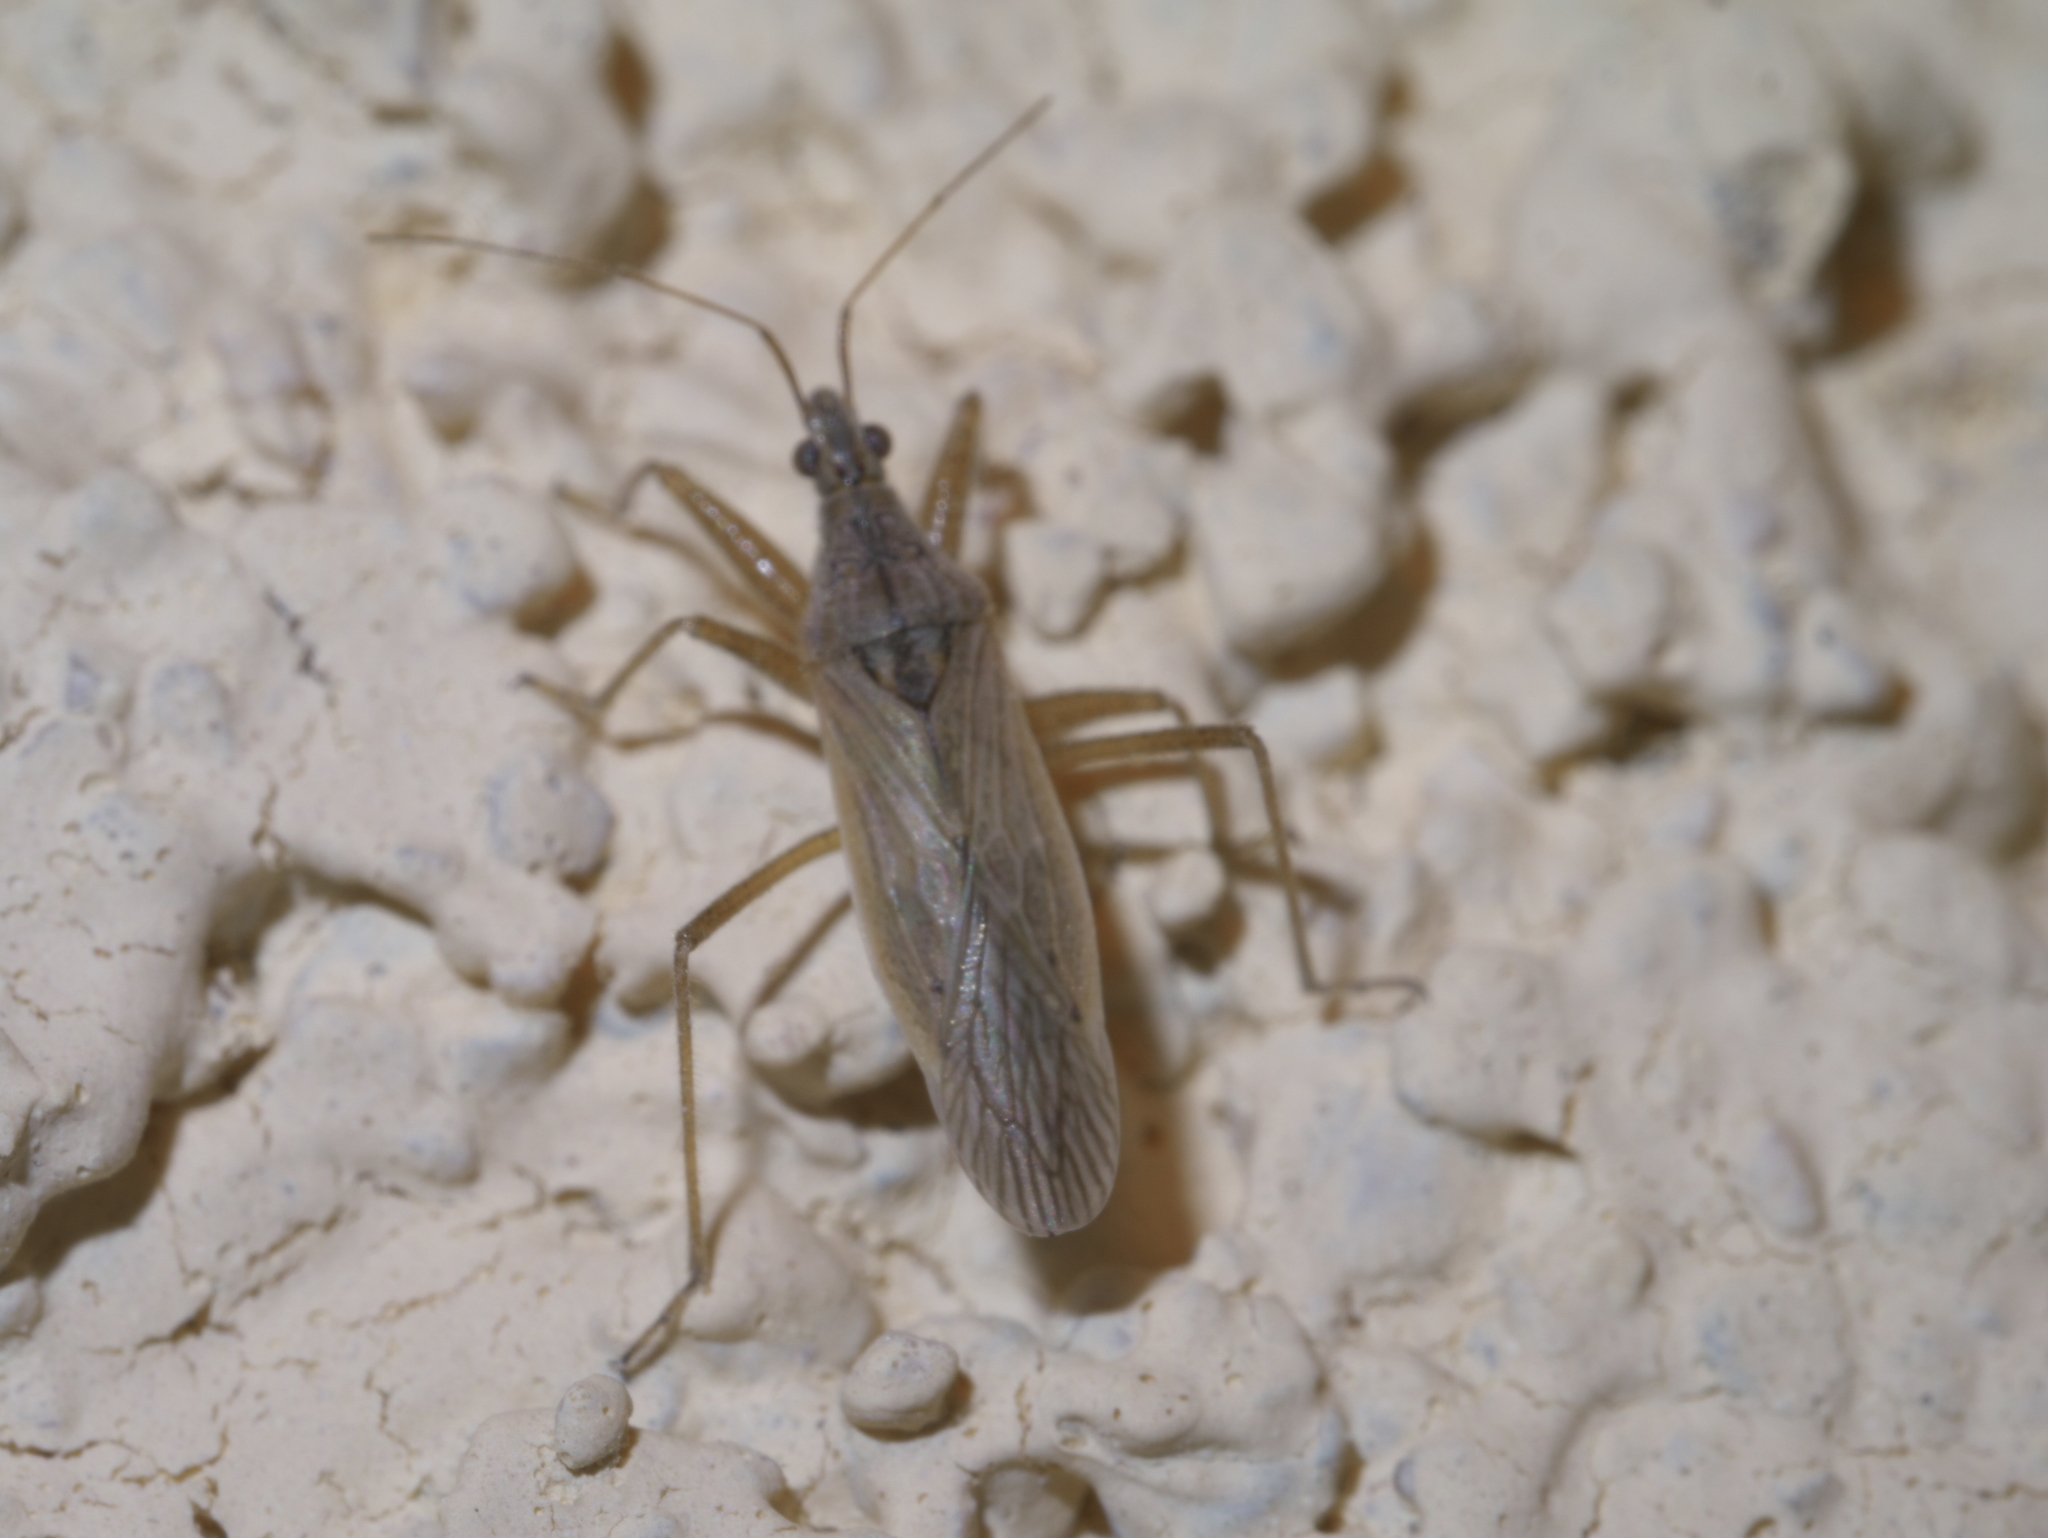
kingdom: Animalia
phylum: Arthropoda
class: Insecta
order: Hemiptera
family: Nabidae
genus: Nabis
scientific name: Nabis americoferus
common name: Common damsel bug
